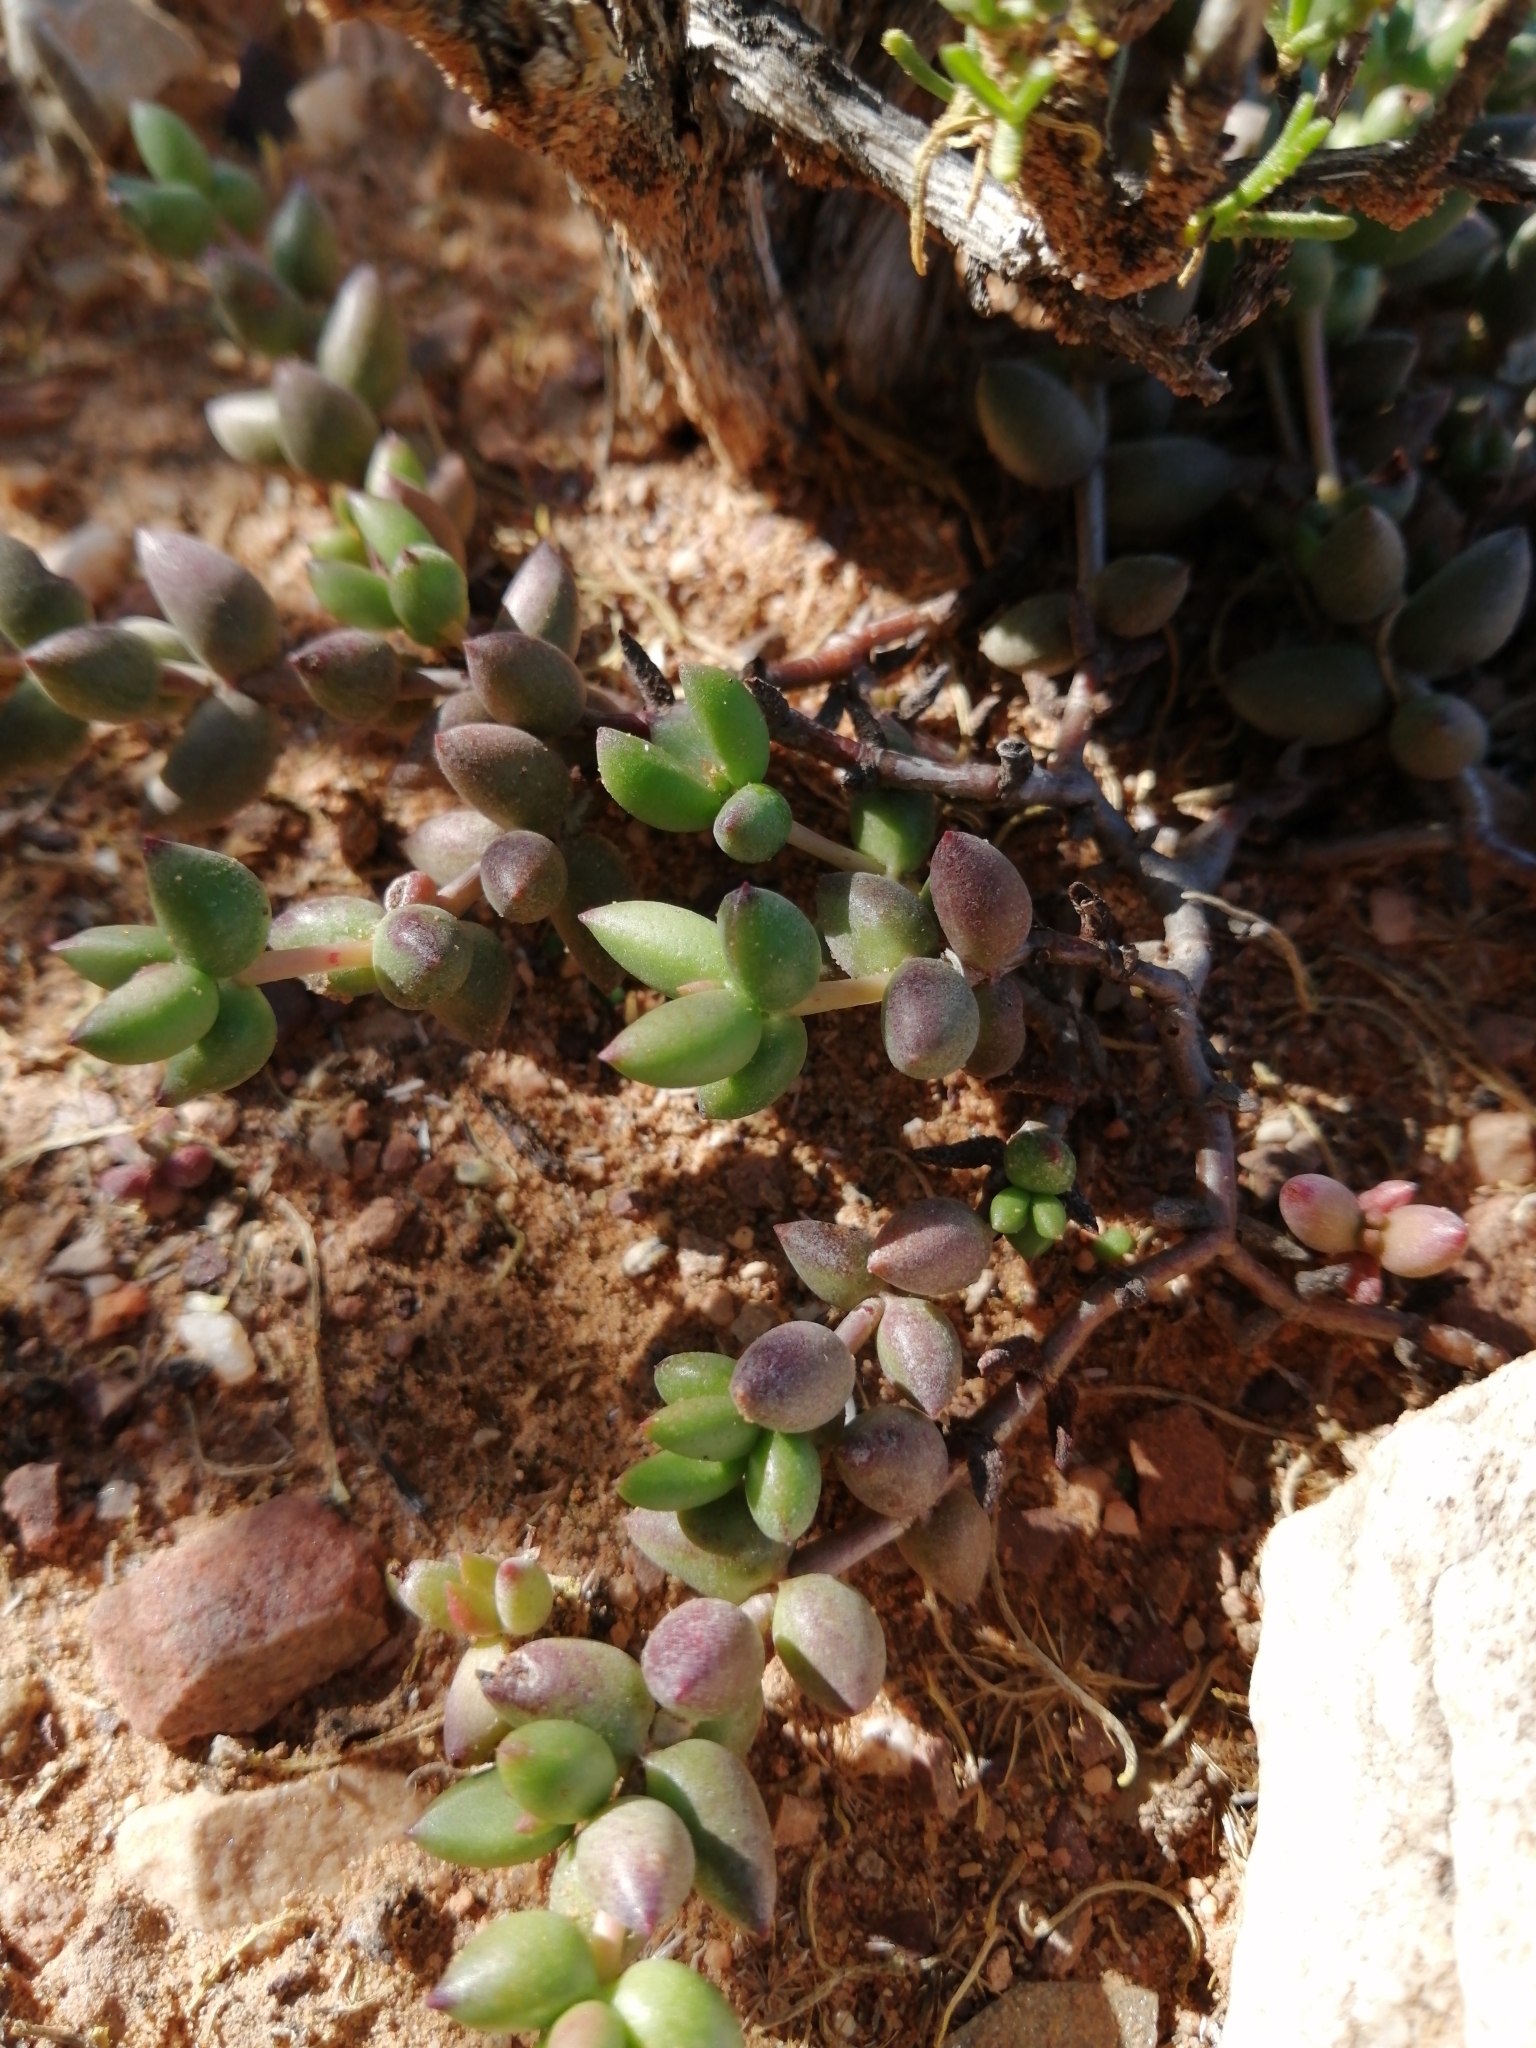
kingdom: Plantae
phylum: Tracheophyta
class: Magnoliopsida
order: Saxifragales
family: Crassulaceae
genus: Crassula
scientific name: Crassula tetragona
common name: Pygmyweed
